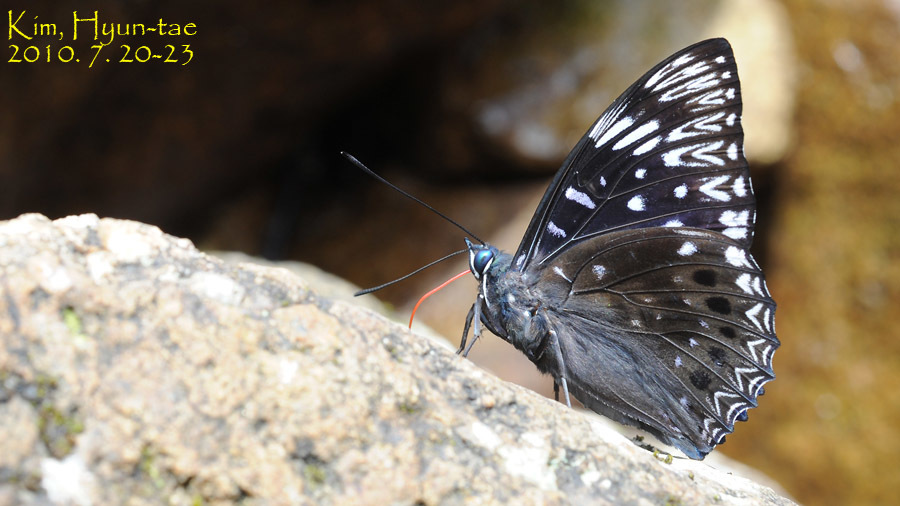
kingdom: Animalia
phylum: Arthropoda
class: Insecta
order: Lepidoptera
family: Nymphalidae
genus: Dichorragia
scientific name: Dichorragia nesimachus
